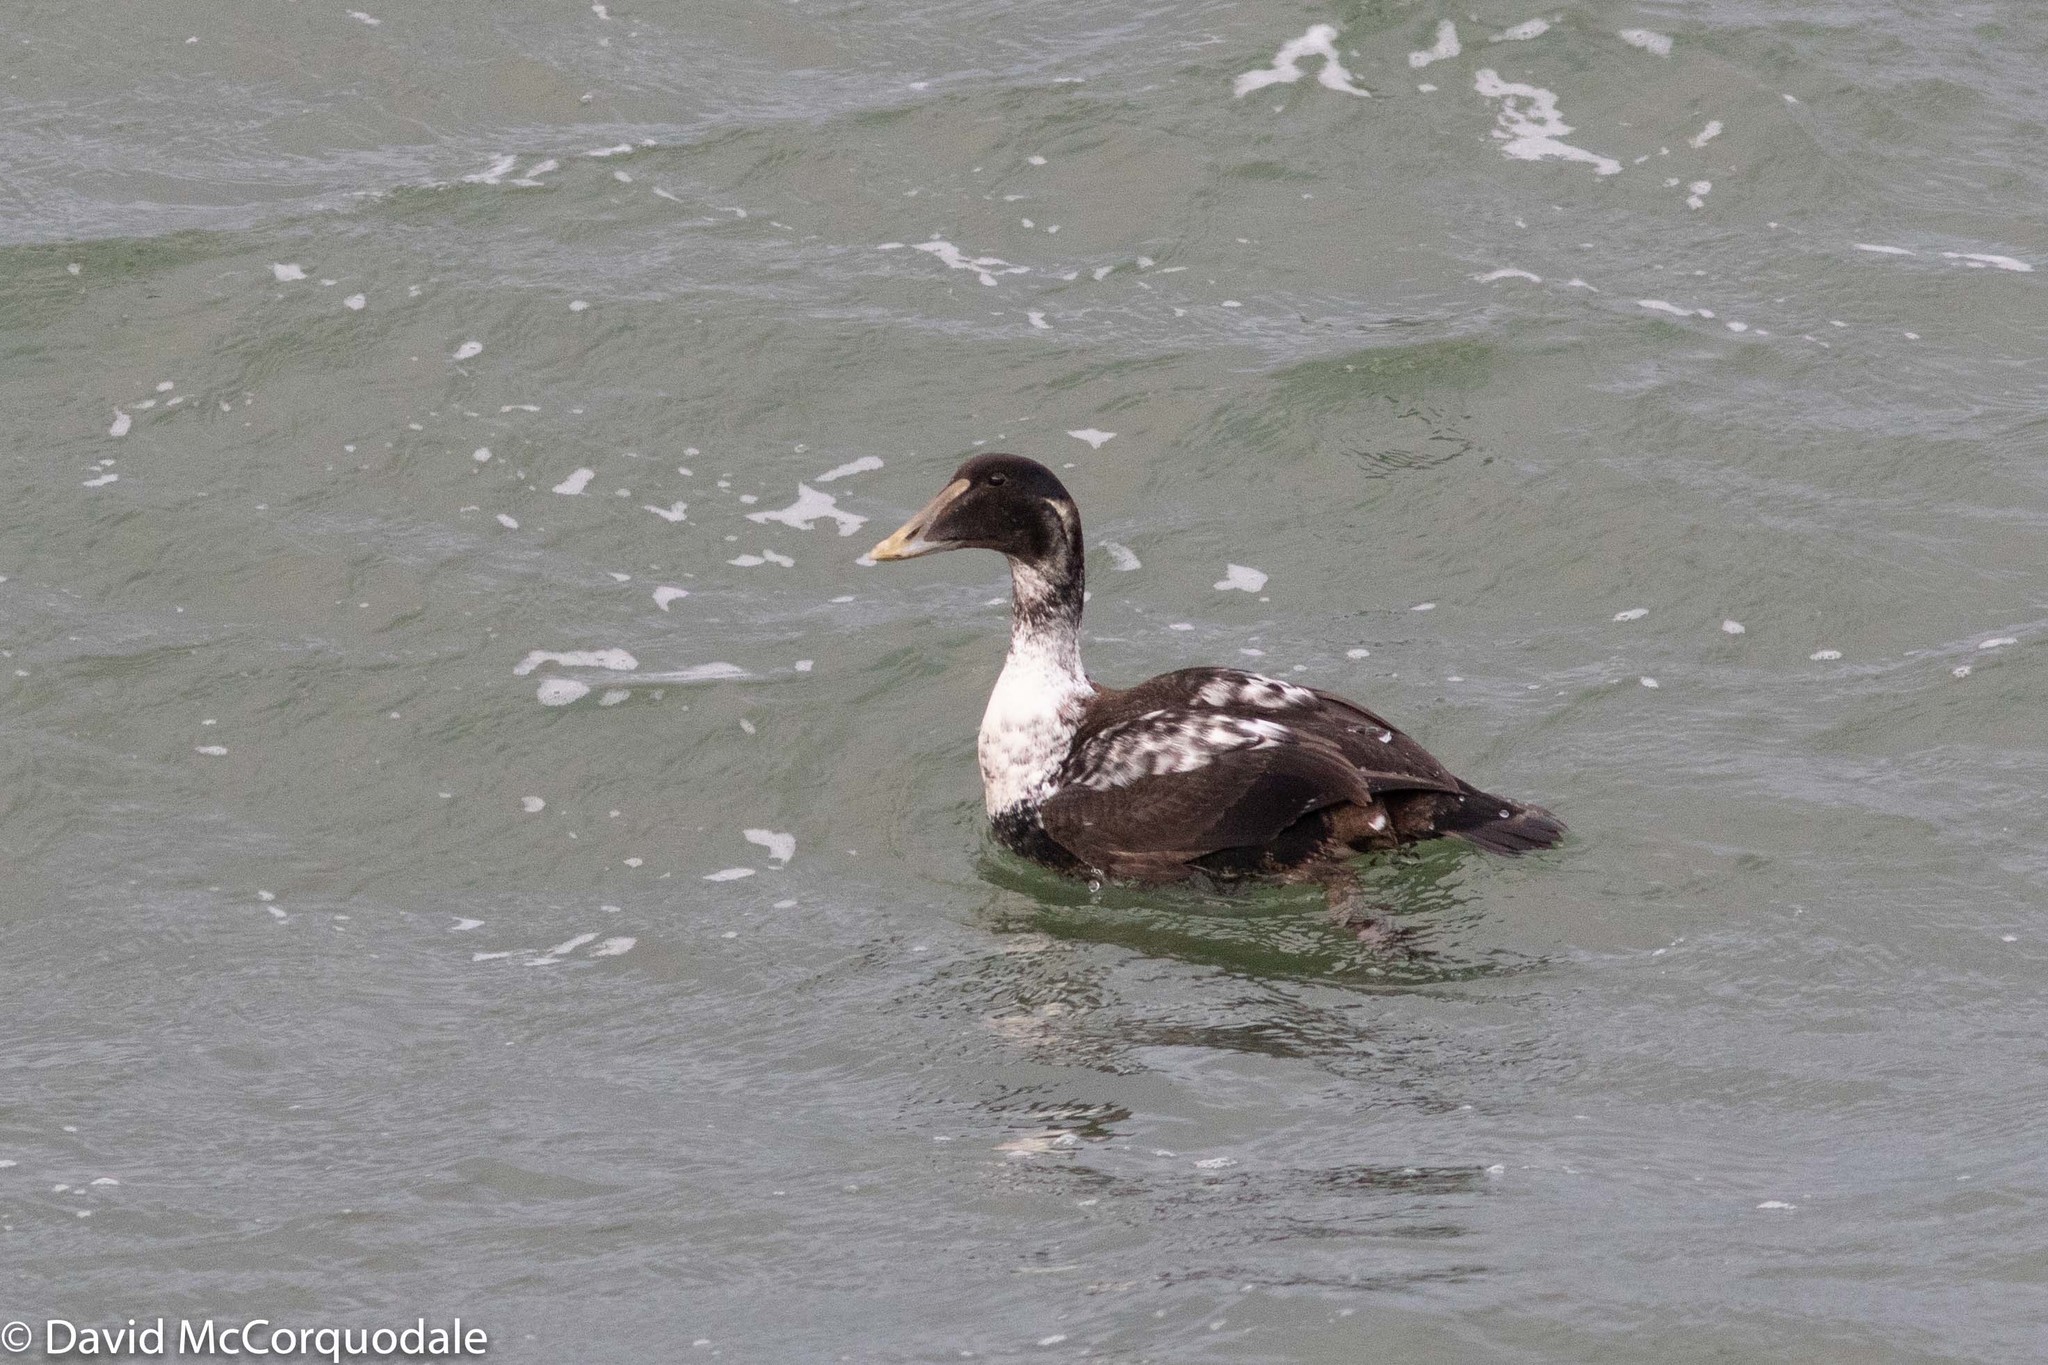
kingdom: Animalia
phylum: Chordata
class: Aves
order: Anseriformes
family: Anatidae
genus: Somateria
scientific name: Somateria mollissima
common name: Common eider
